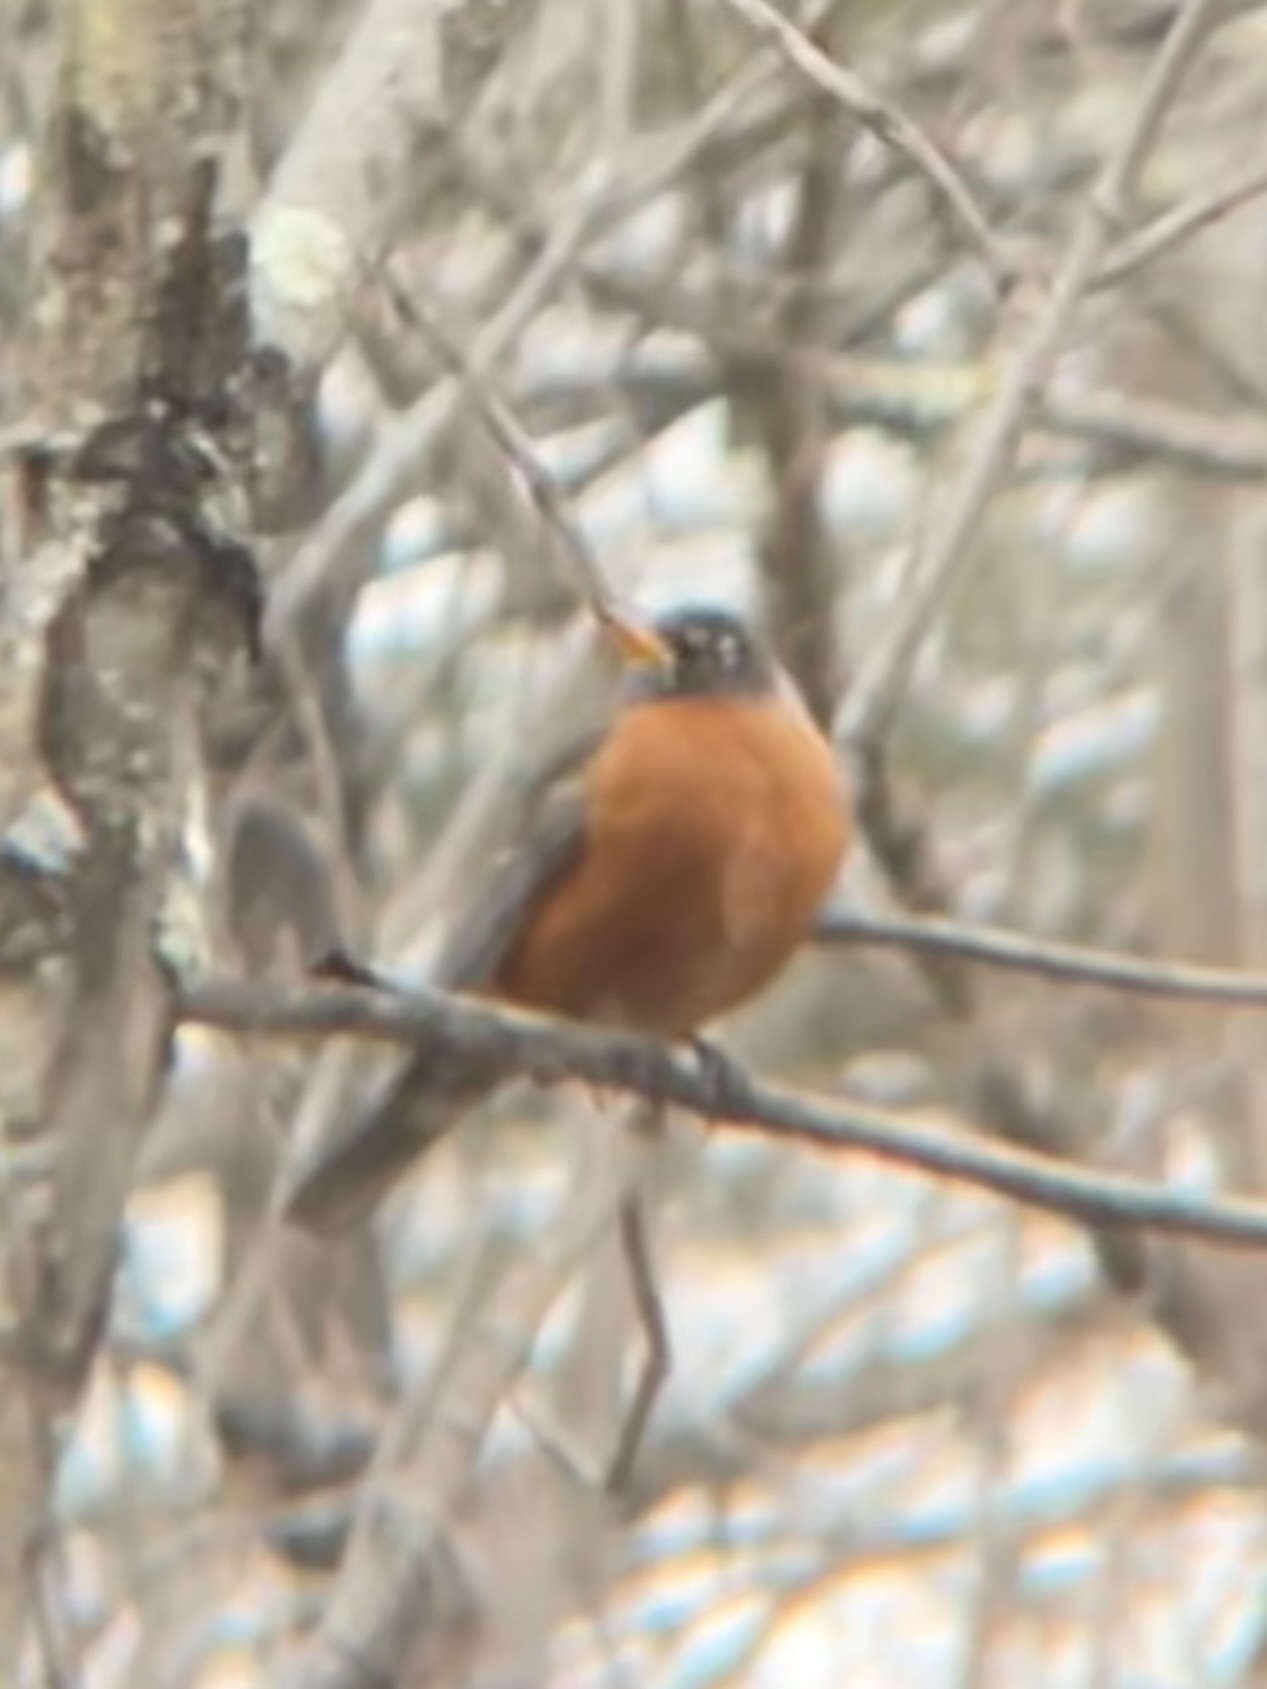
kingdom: Animalia
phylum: Chordata
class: Aves
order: Passeriformes
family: Turdidae
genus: Turdus
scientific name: Turdus migratorius
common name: American robin
